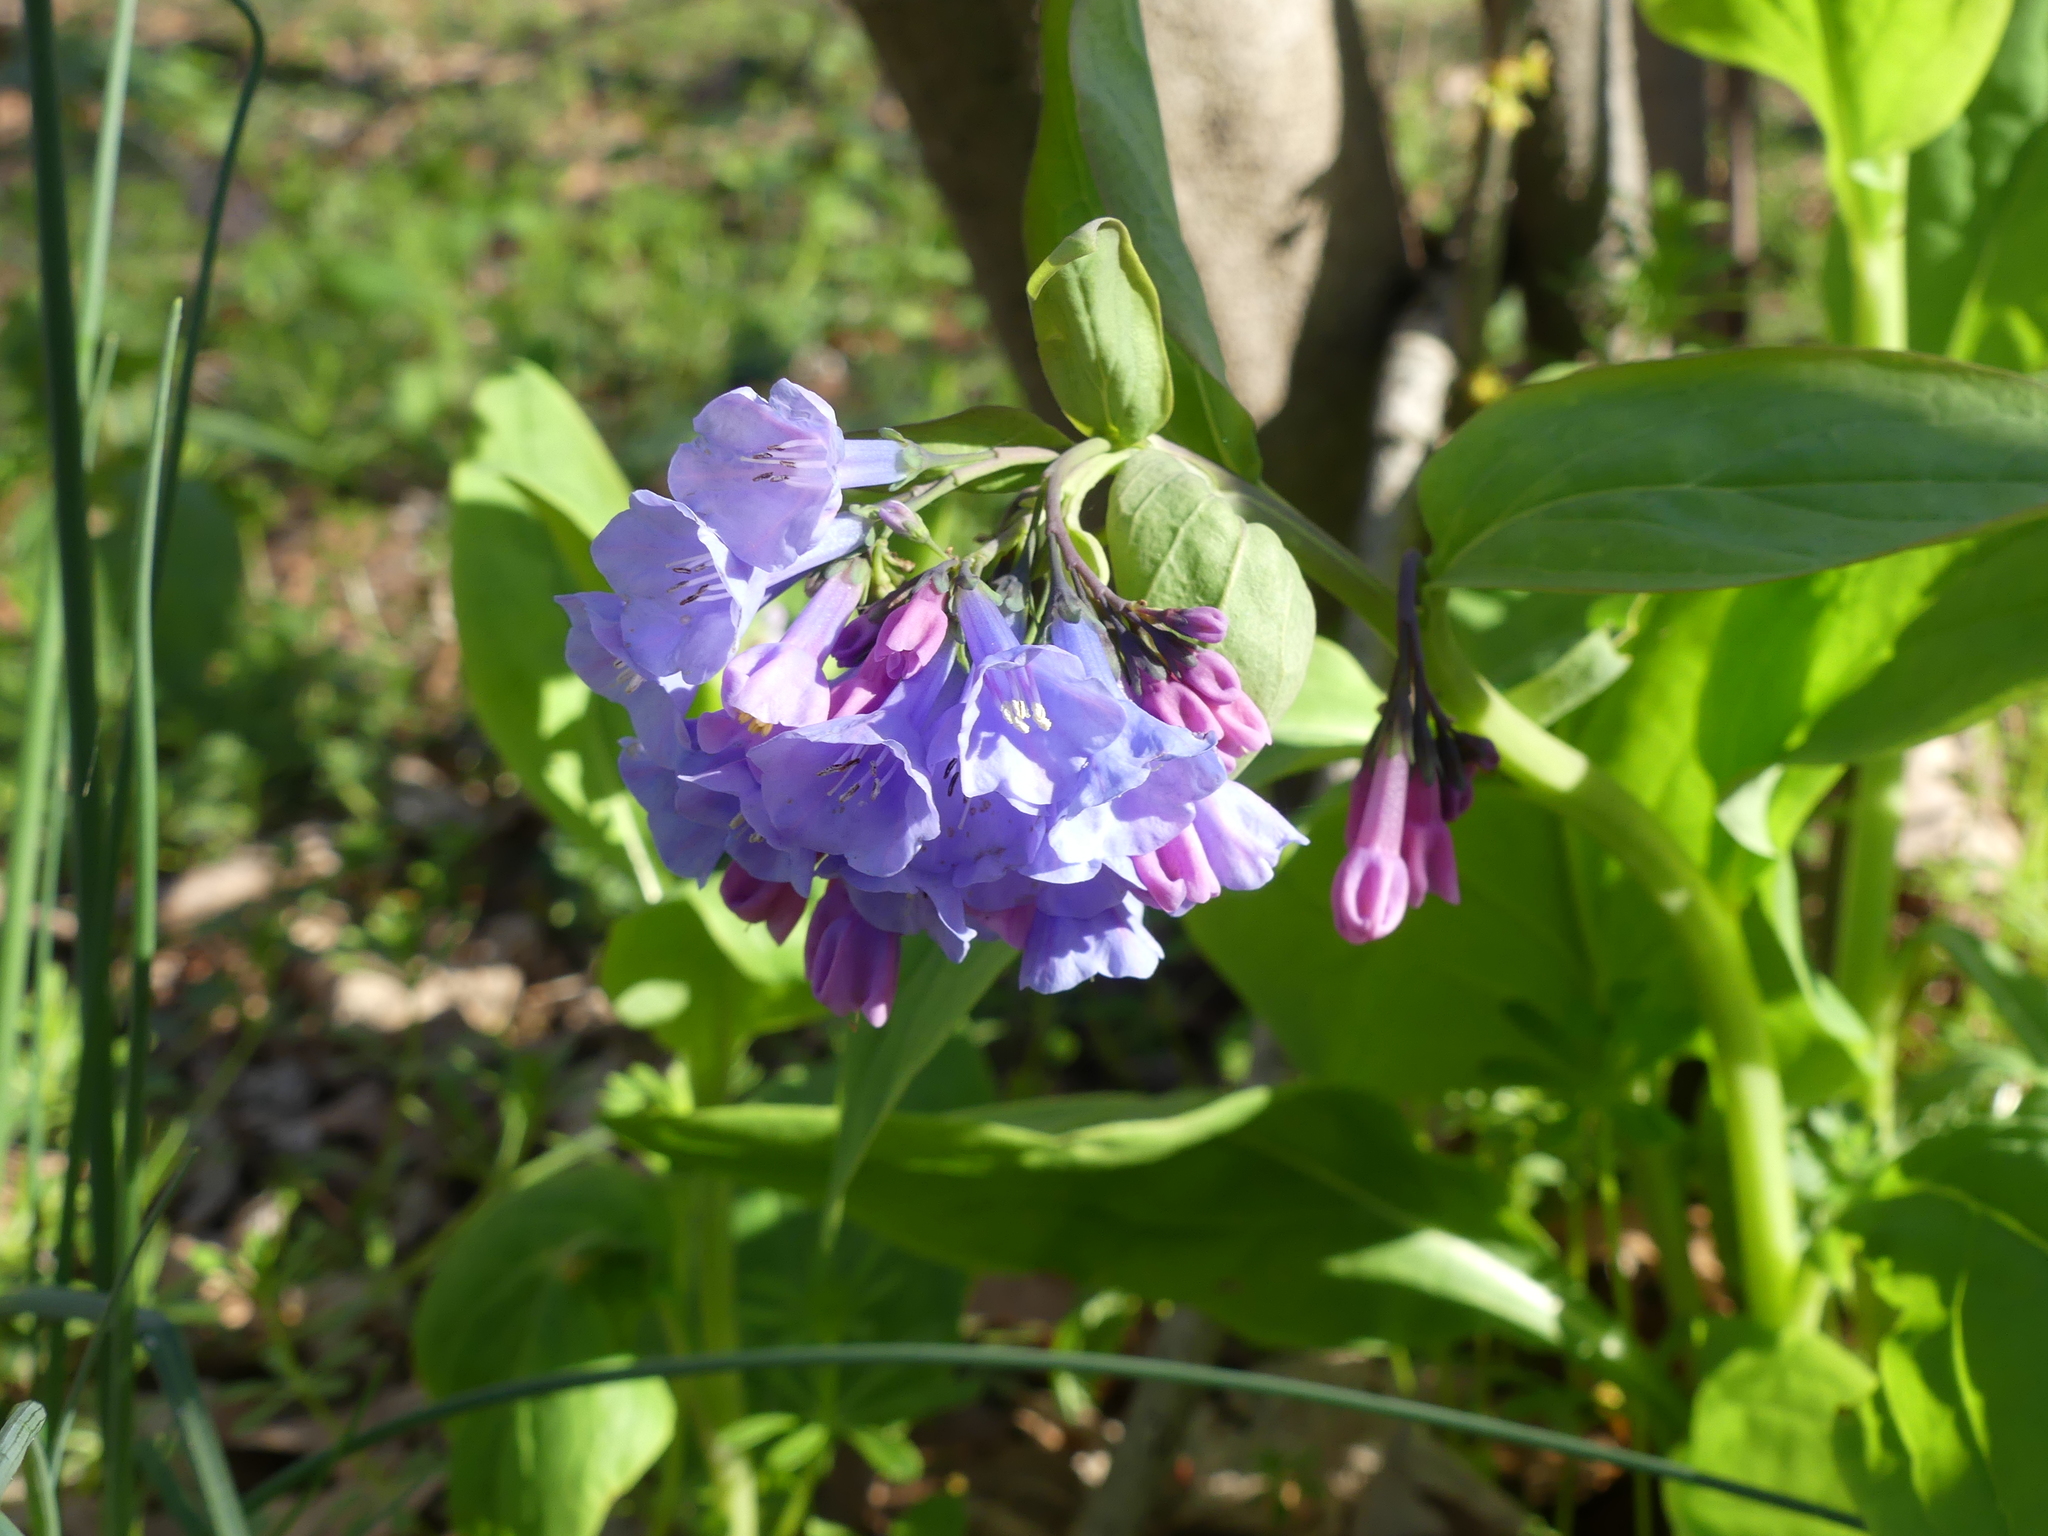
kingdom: Plantae
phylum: Tracheophyta
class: Magnoliopsida
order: Boraginales
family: Boraginaceae
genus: Mertensia
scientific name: Mertensia virginica
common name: Virginia bluebells
